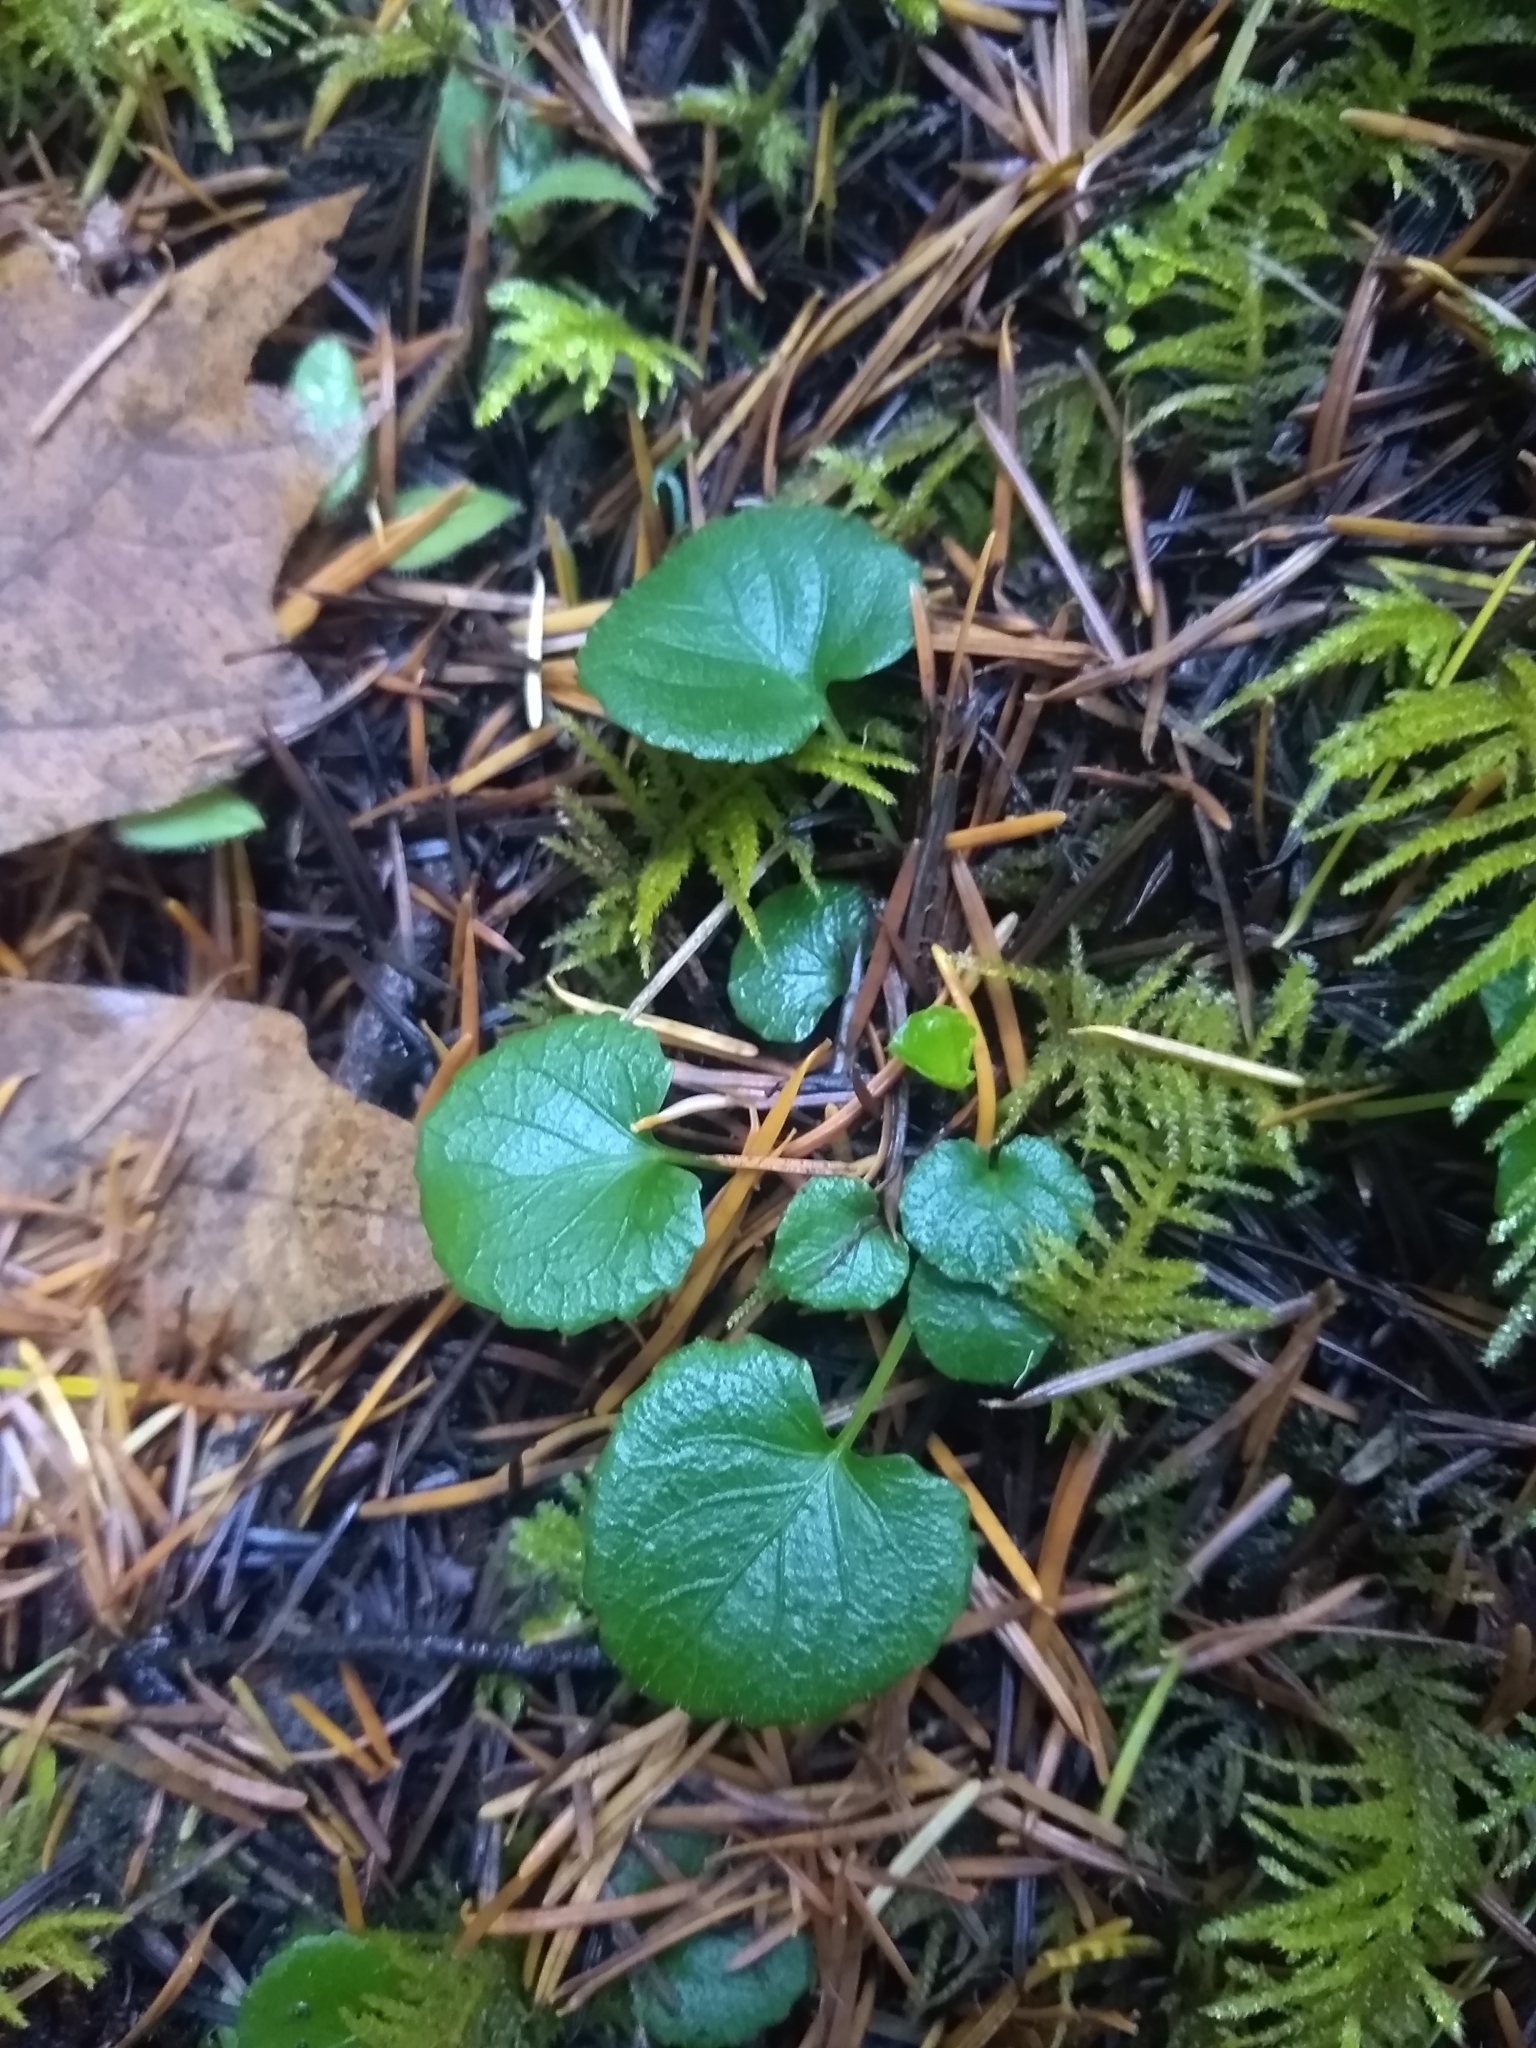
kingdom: Plantae
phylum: Tracheophyta
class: Magnoliopsida
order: Malpighiales
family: Violaceae
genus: Viola
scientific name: Viola sempervirens
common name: Evergreen violet
